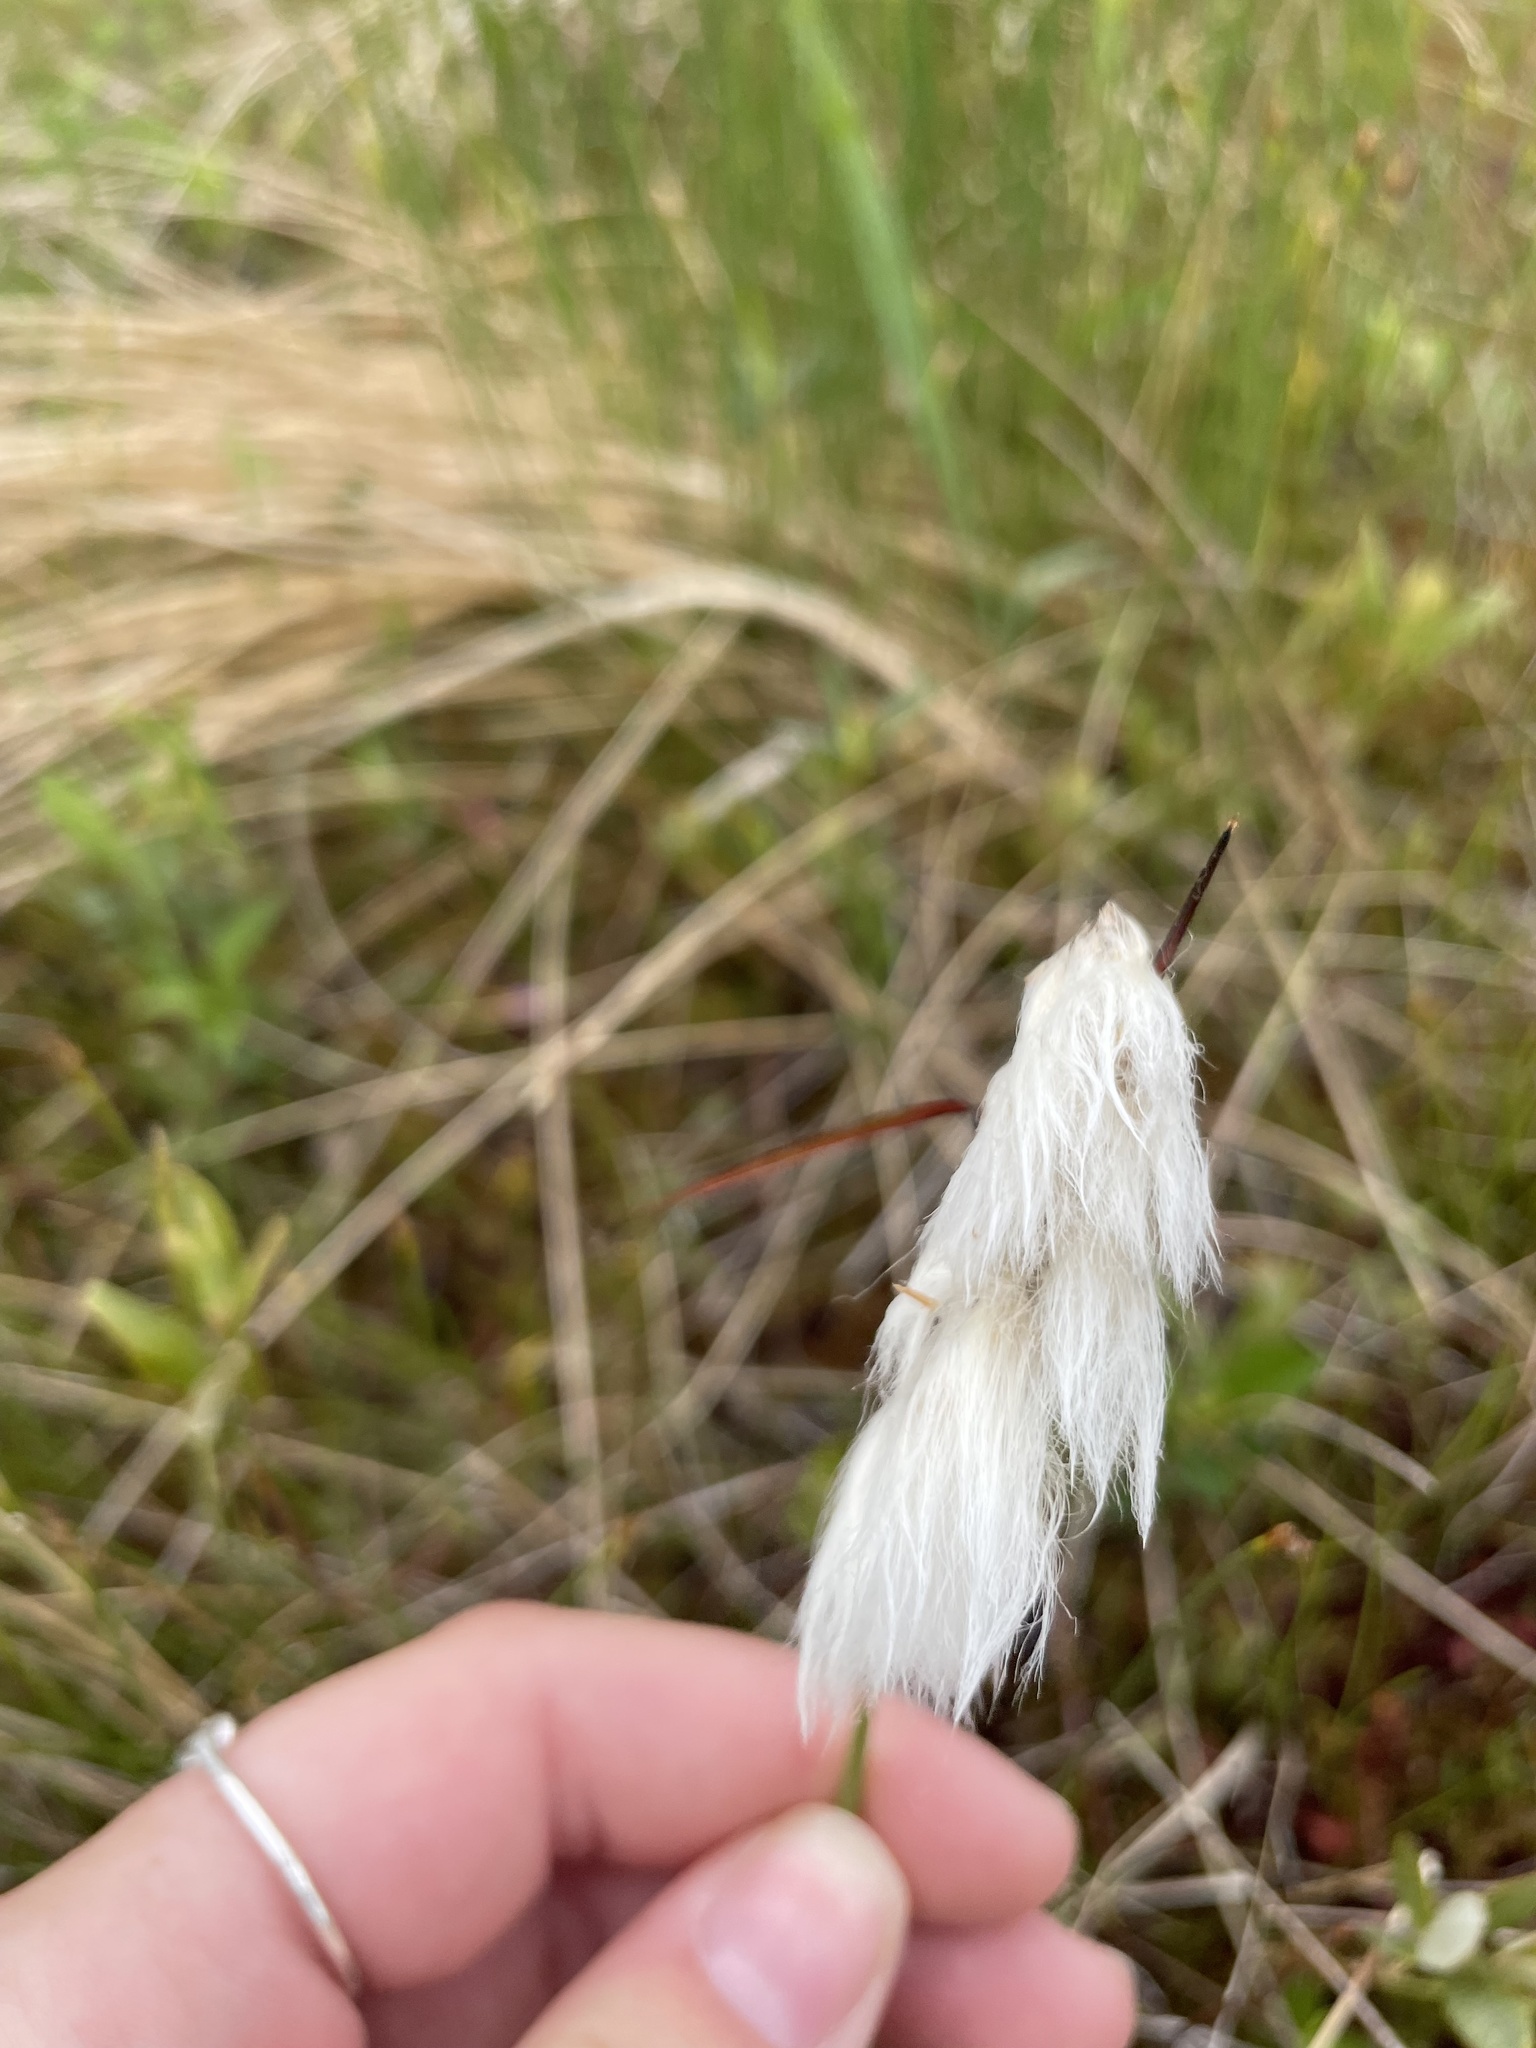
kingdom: Plantae
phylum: Tracheophyta
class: Liliopsida
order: Poales
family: Cyperaceae
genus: Eriophorum
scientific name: Eriophorum angustifolium
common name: Common cottongrass
